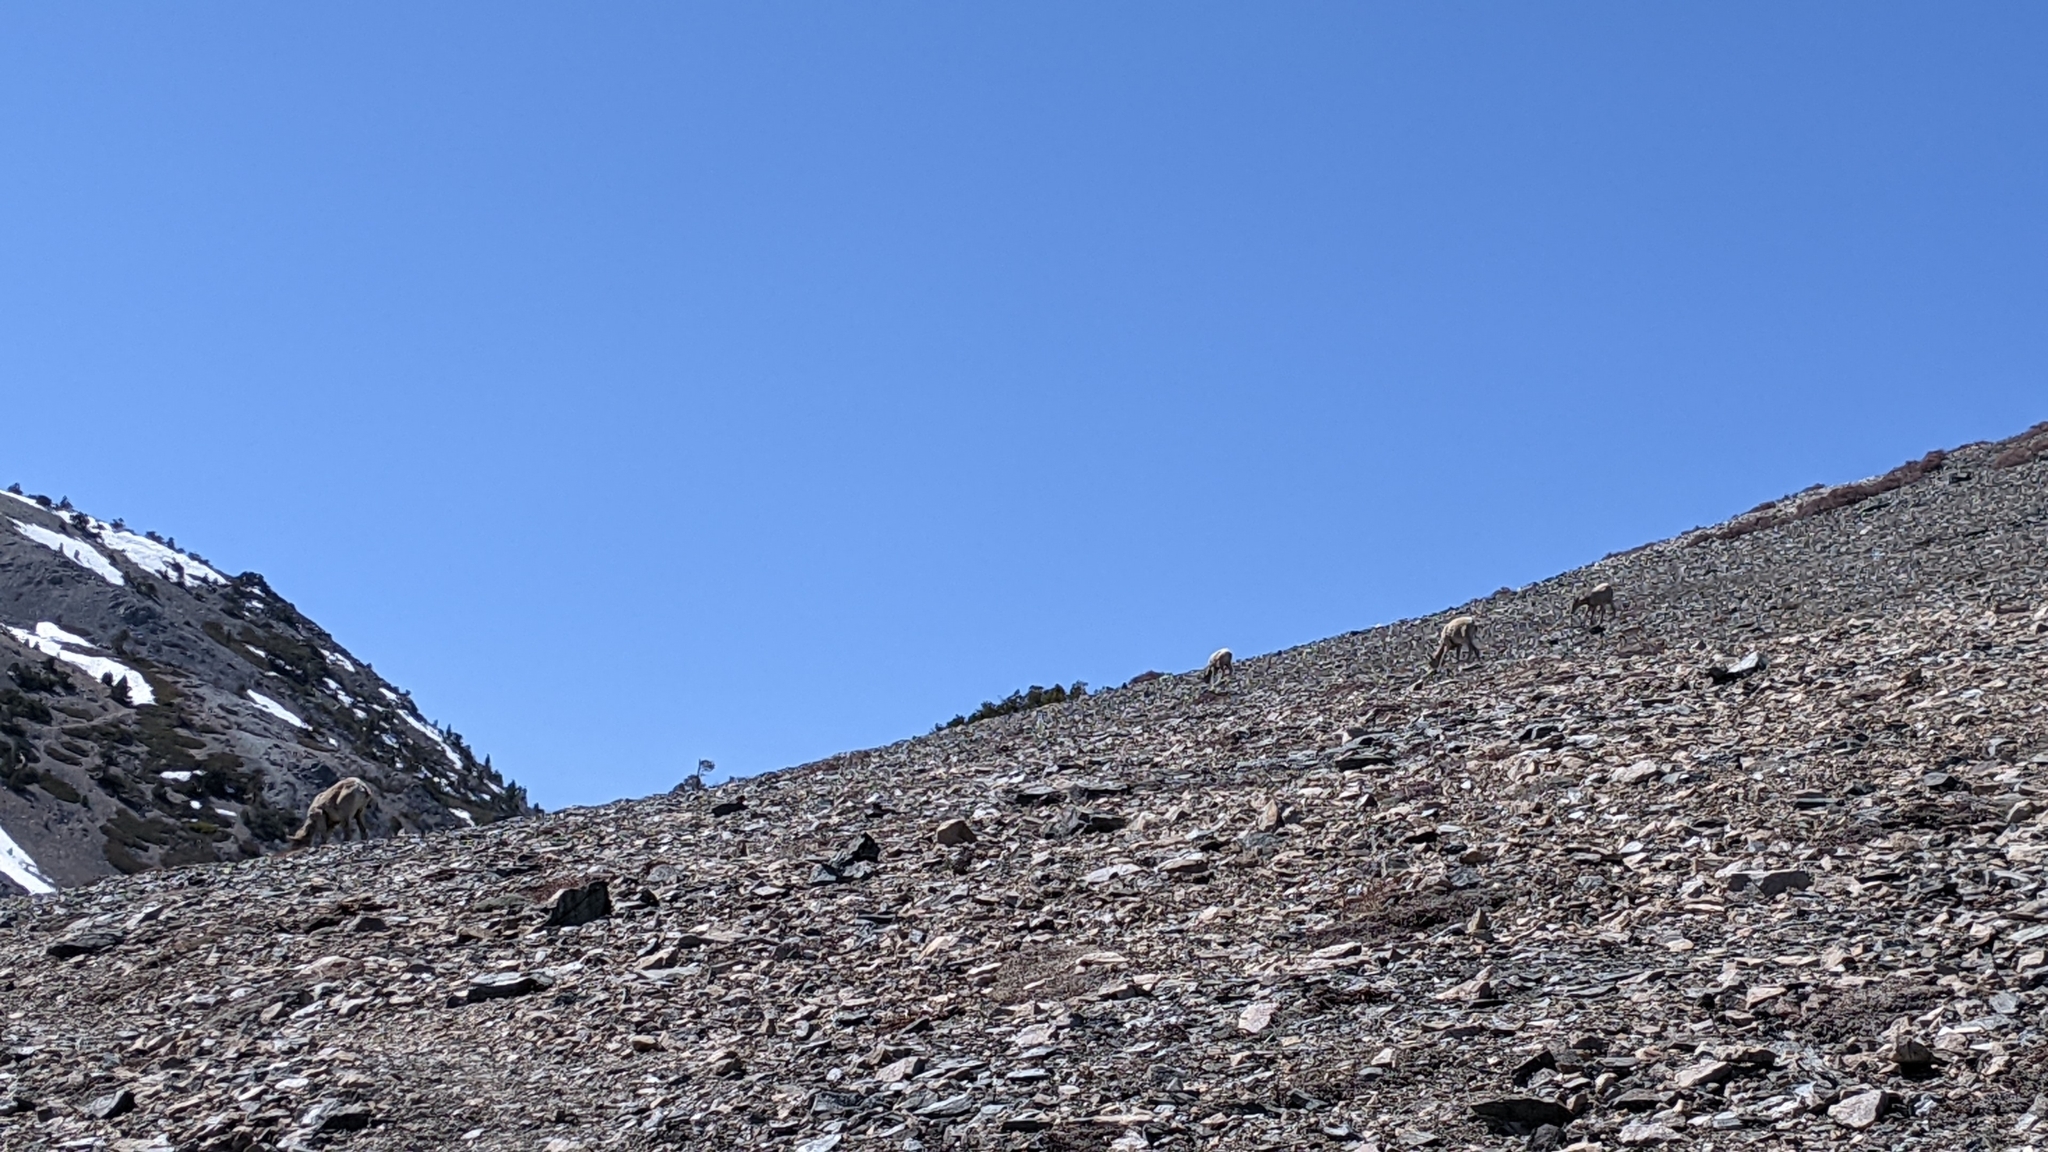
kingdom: Animalia
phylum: Chordata
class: Mammalia
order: Artiodactyla
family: Bovidae
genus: Ovis
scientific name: Ovis canadensis
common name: Bighorn sheep
